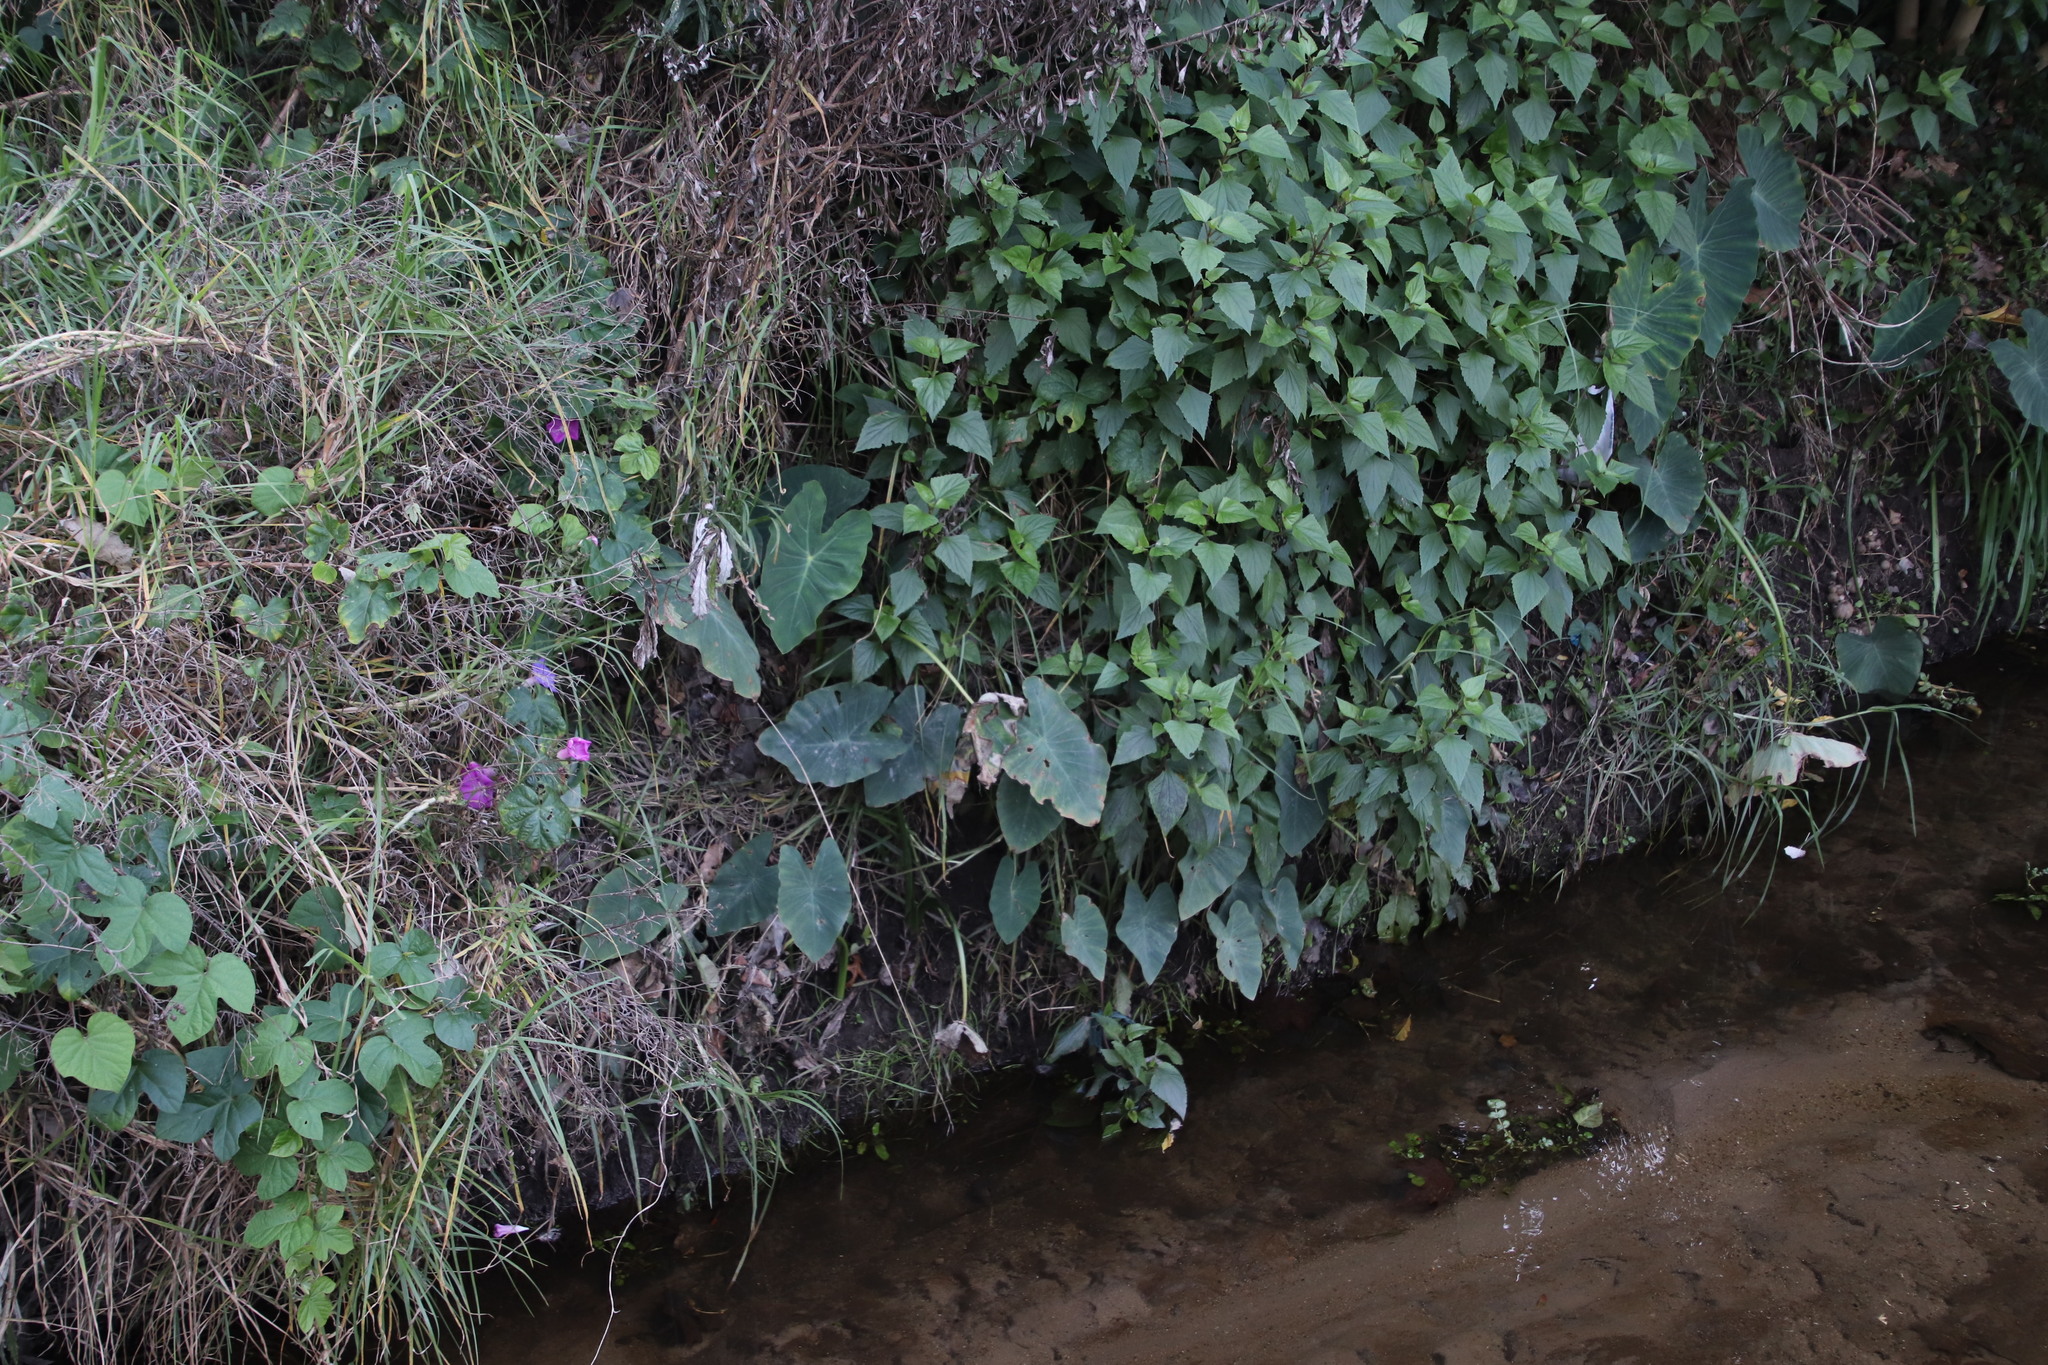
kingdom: Plantae
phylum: Tracheophyta
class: Magnoliopsida
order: Solanales
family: Convolvulaceae
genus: Ipomoea
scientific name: Ipomoea indica
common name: Blue dawnflower
